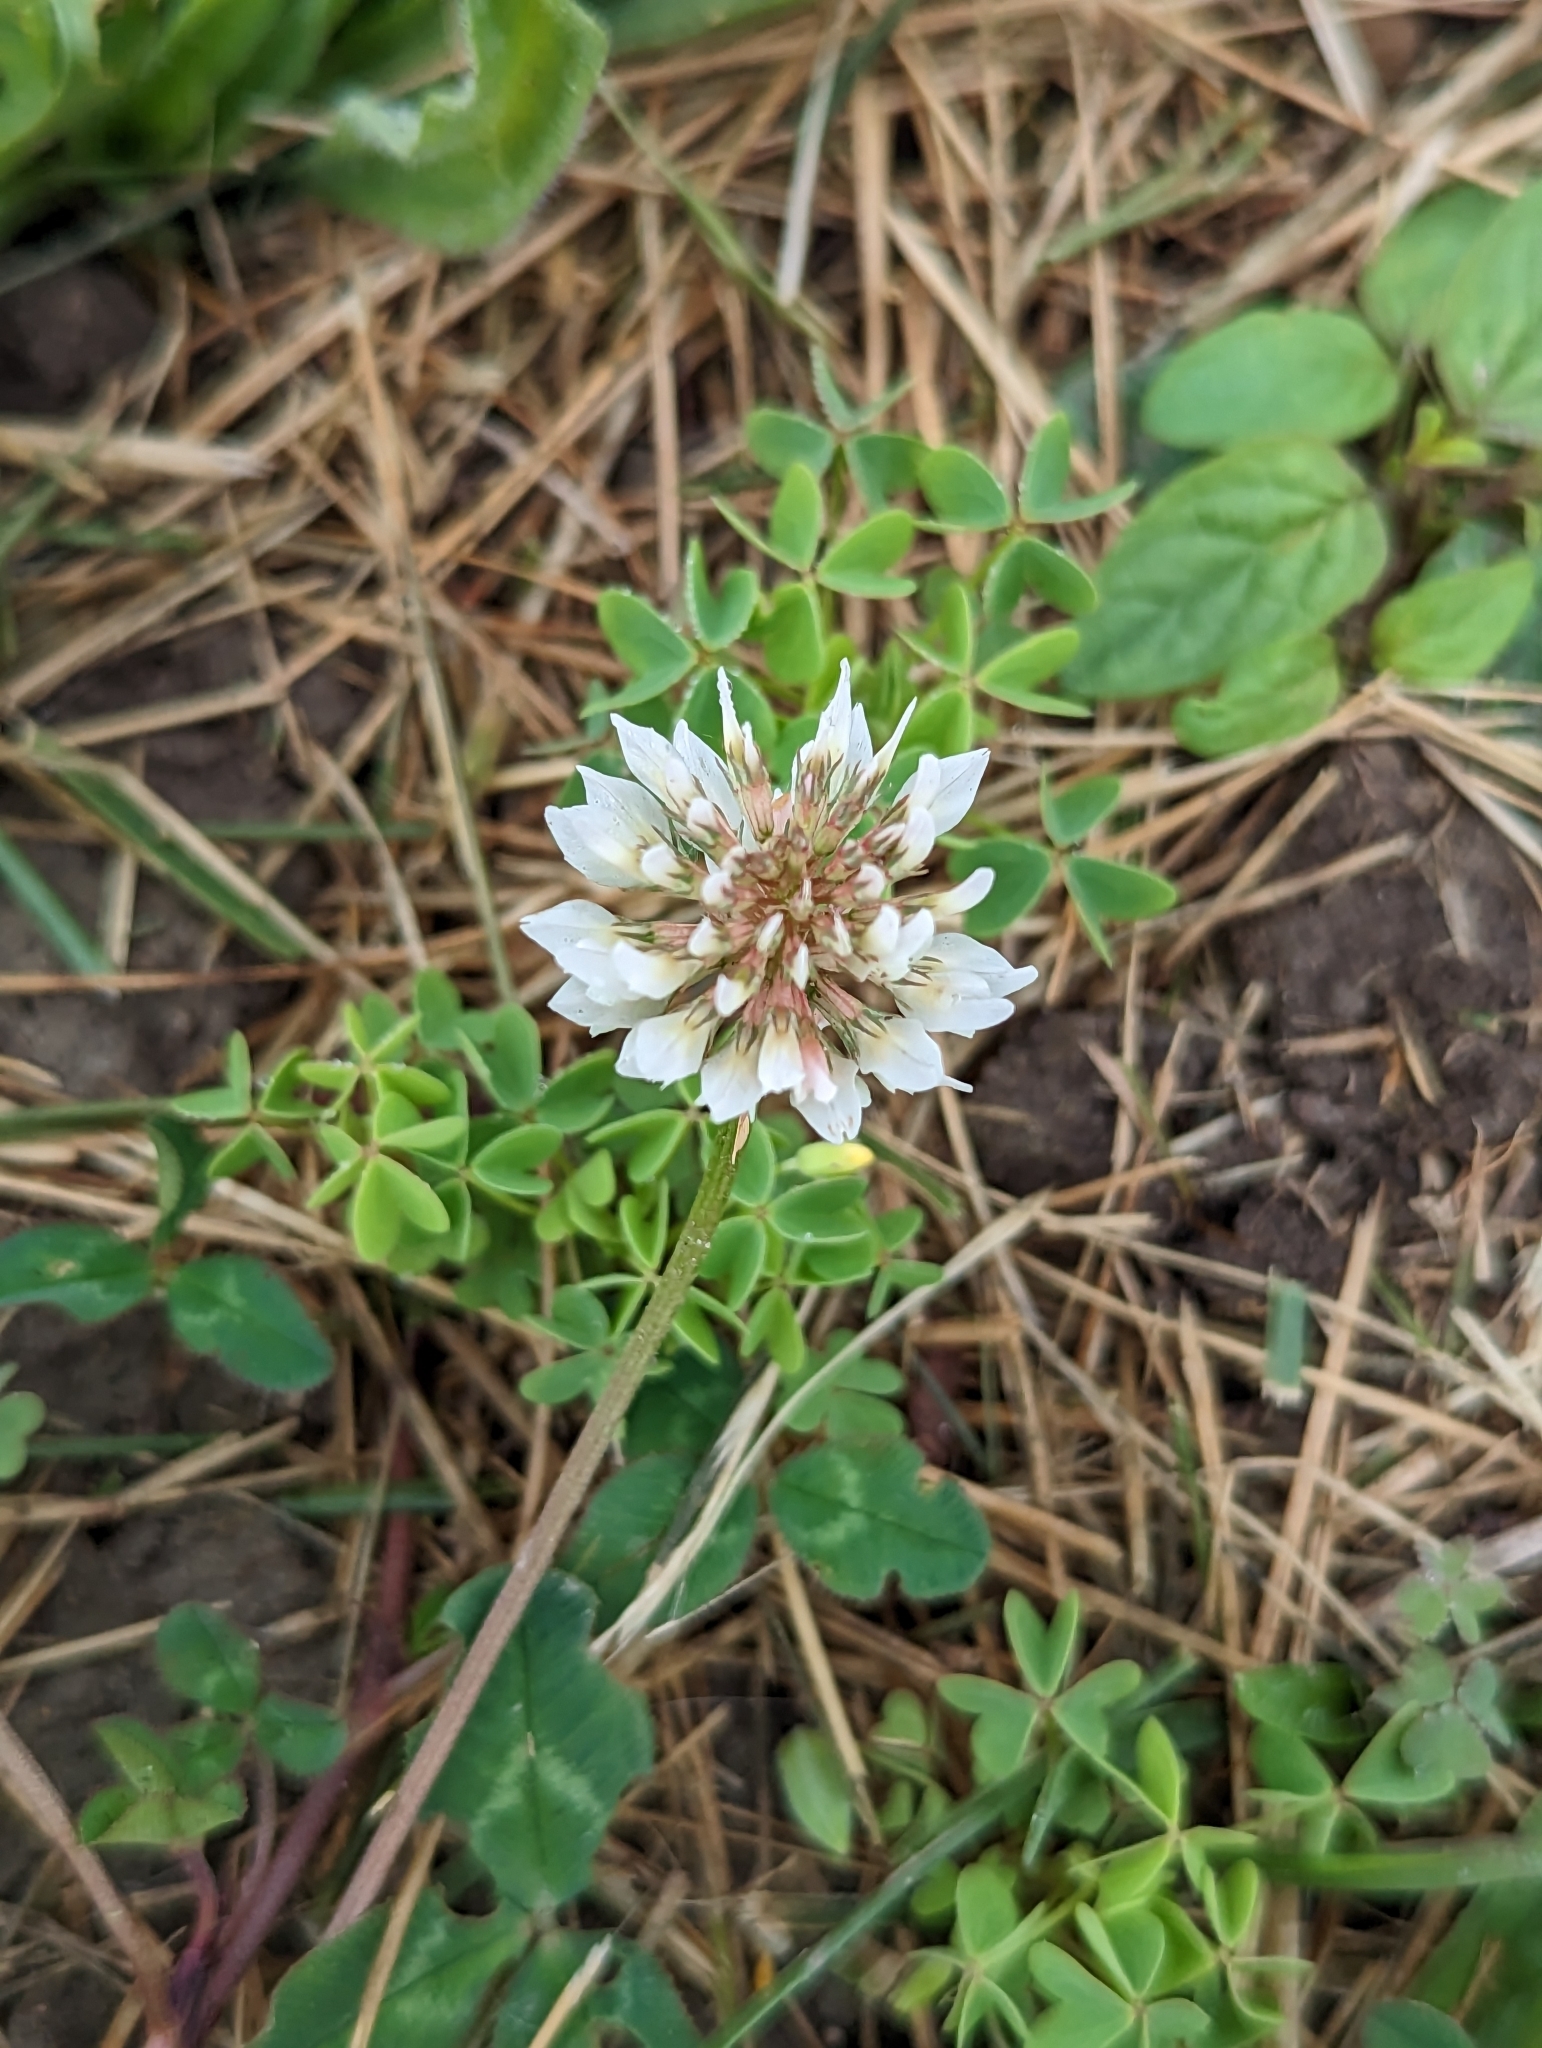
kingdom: Plantae
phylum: Tracheophyta
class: Magnoliopsida
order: Fabales
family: Fabaceae
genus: Trifolium
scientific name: Trifolium repens
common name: White clover
